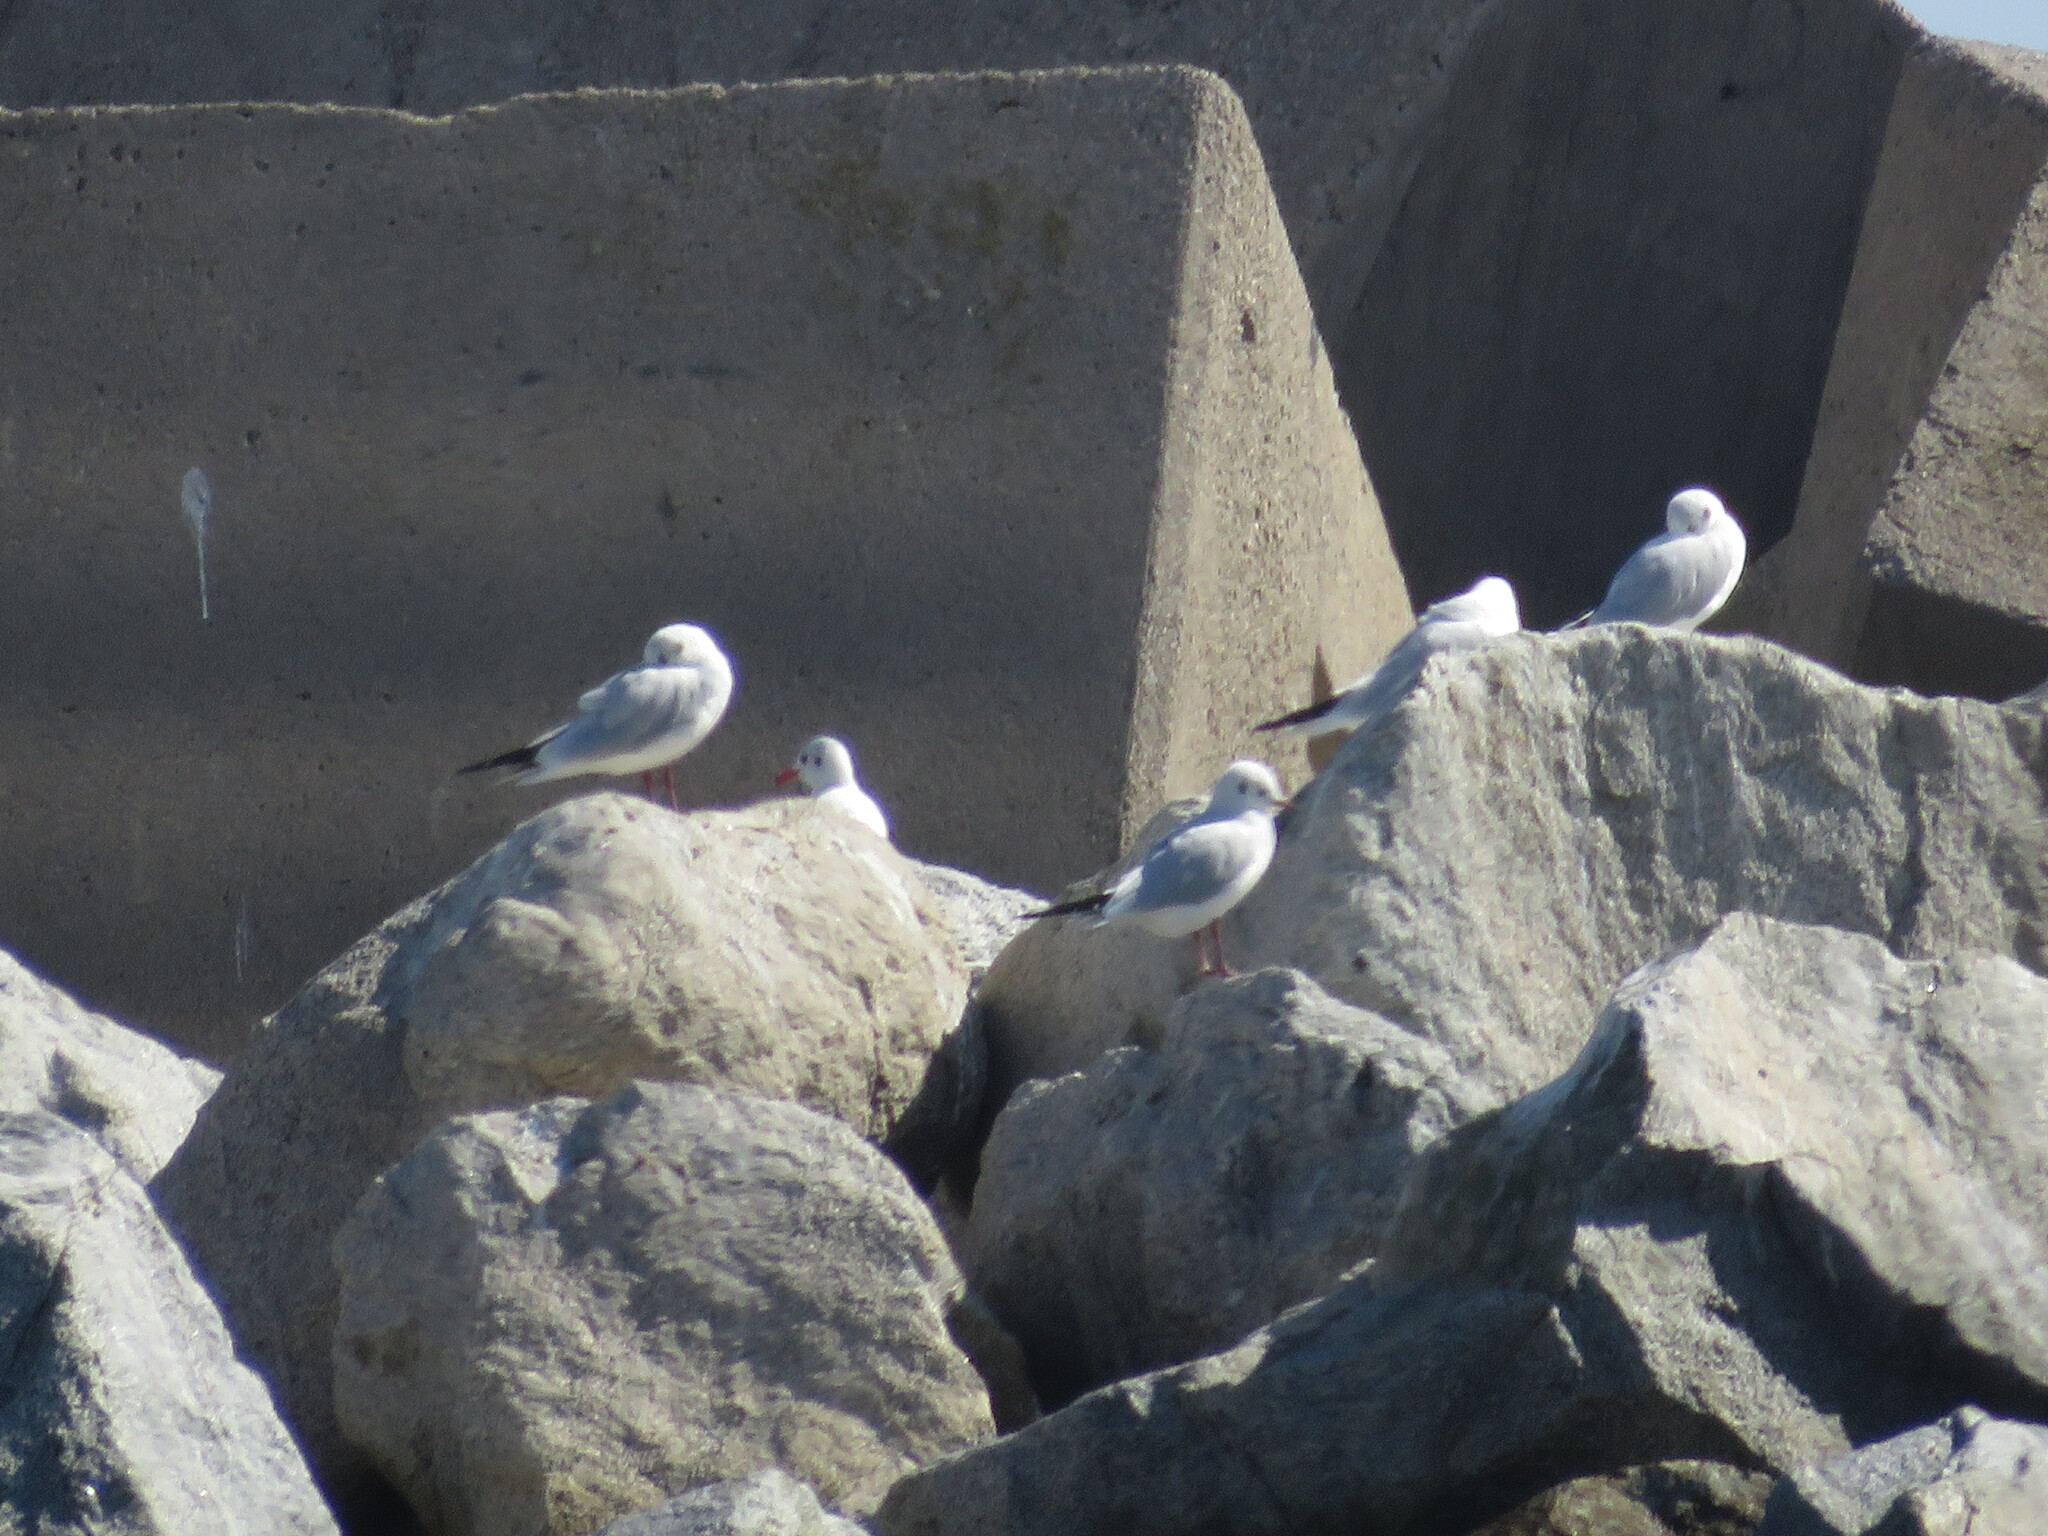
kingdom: Animalia
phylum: Chordata
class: Aves
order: Charadriiformes
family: Laridae
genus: Chroicocephalus
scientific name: Chroicocephalus ridibundus
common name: Black-headed gull
